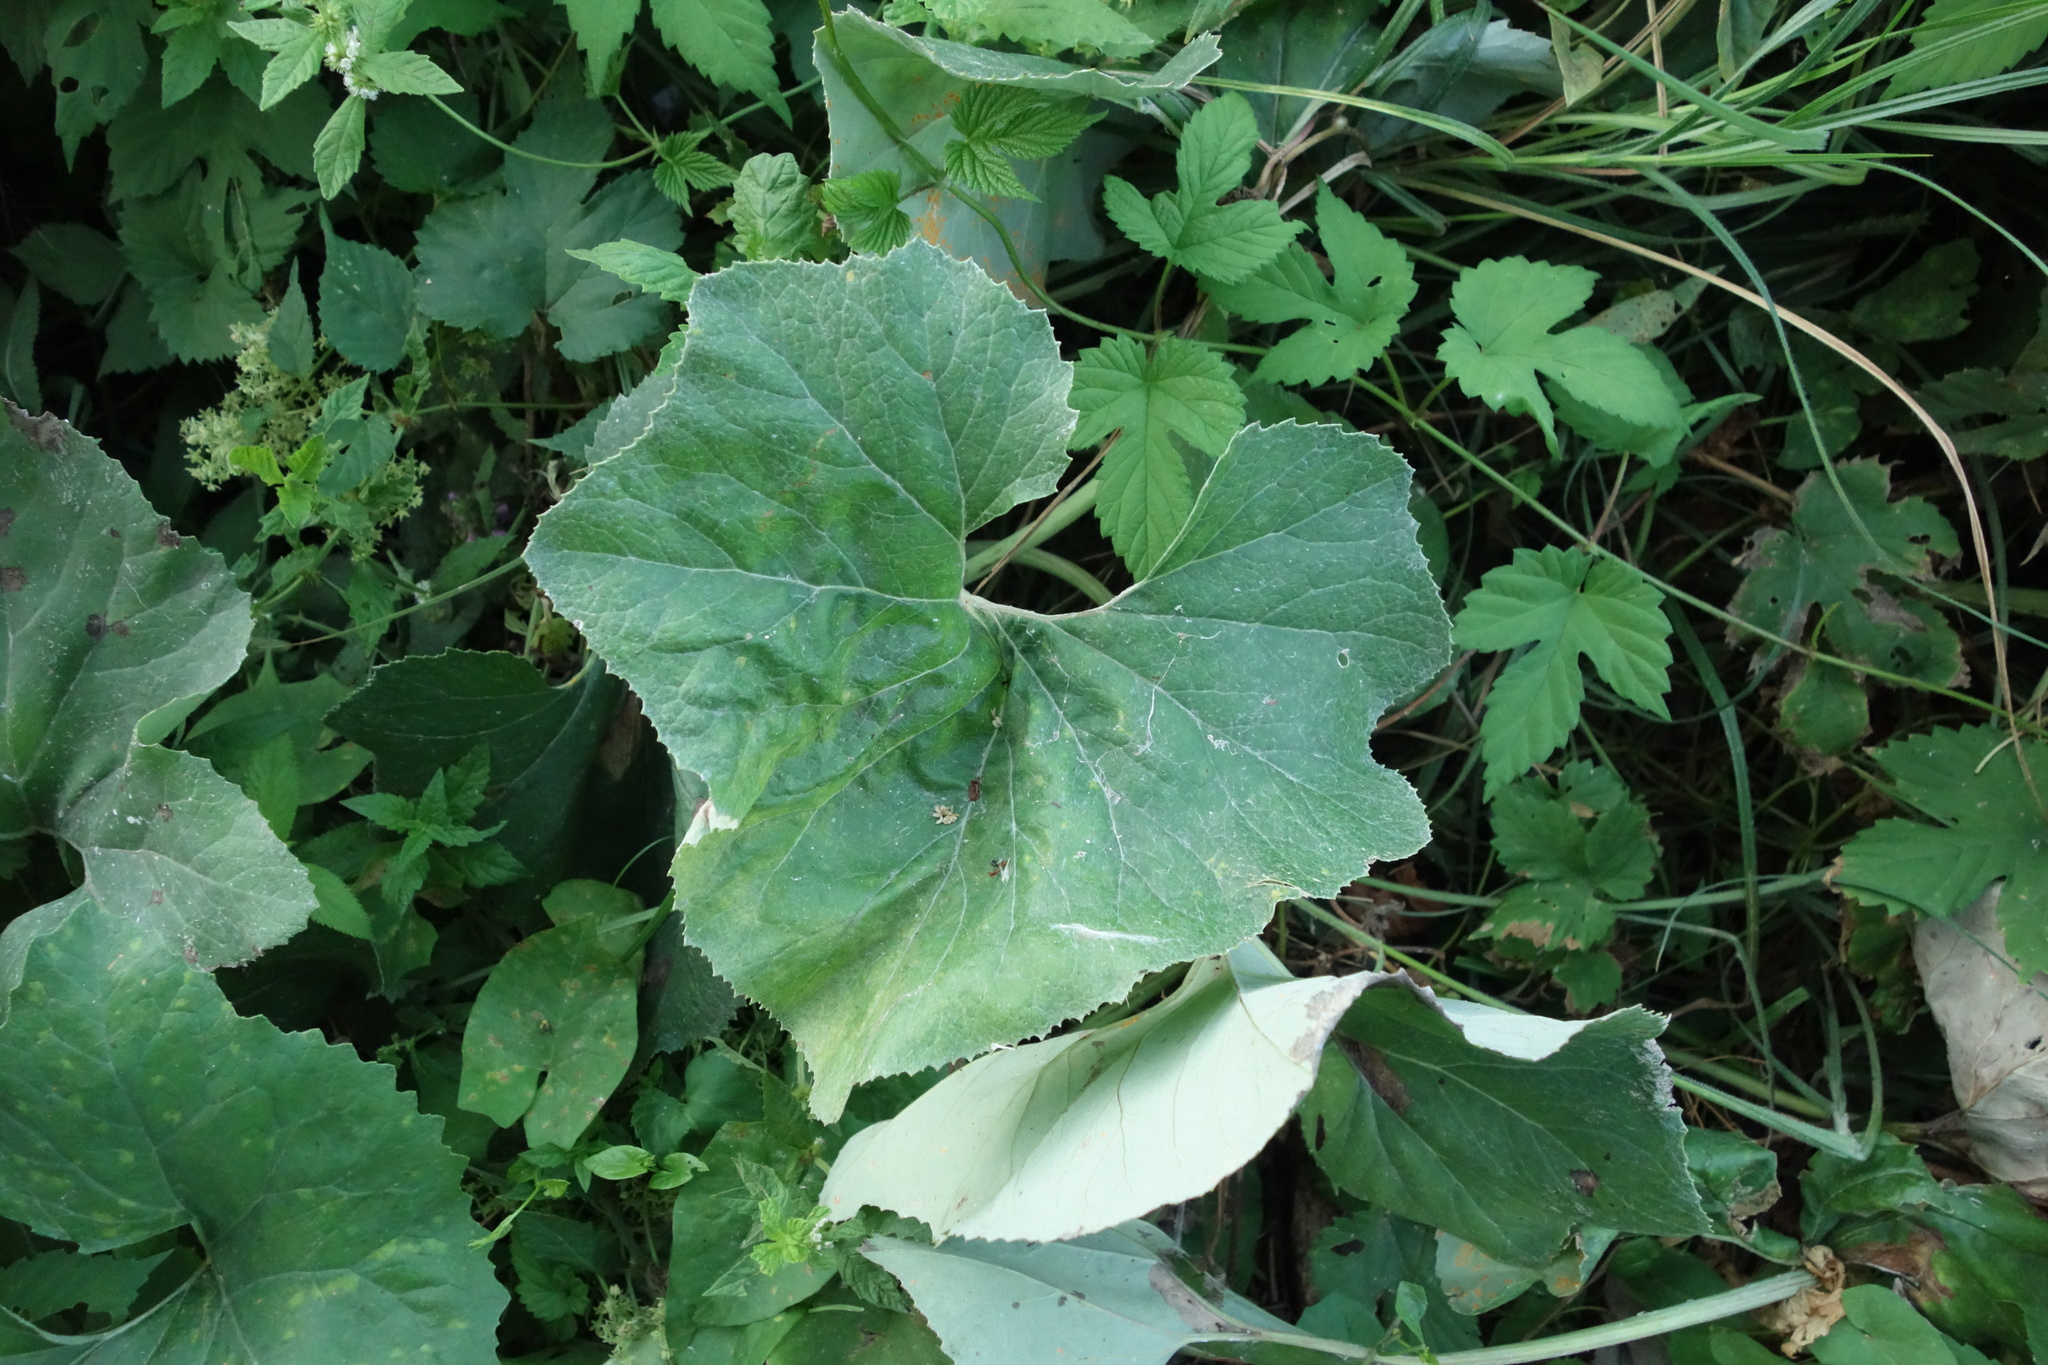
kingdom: Plantae
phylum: Tracheophyta
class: Magnoliopsida
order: Asterales
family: Asteraceae
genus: Petasites
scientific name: Petasites spurius
